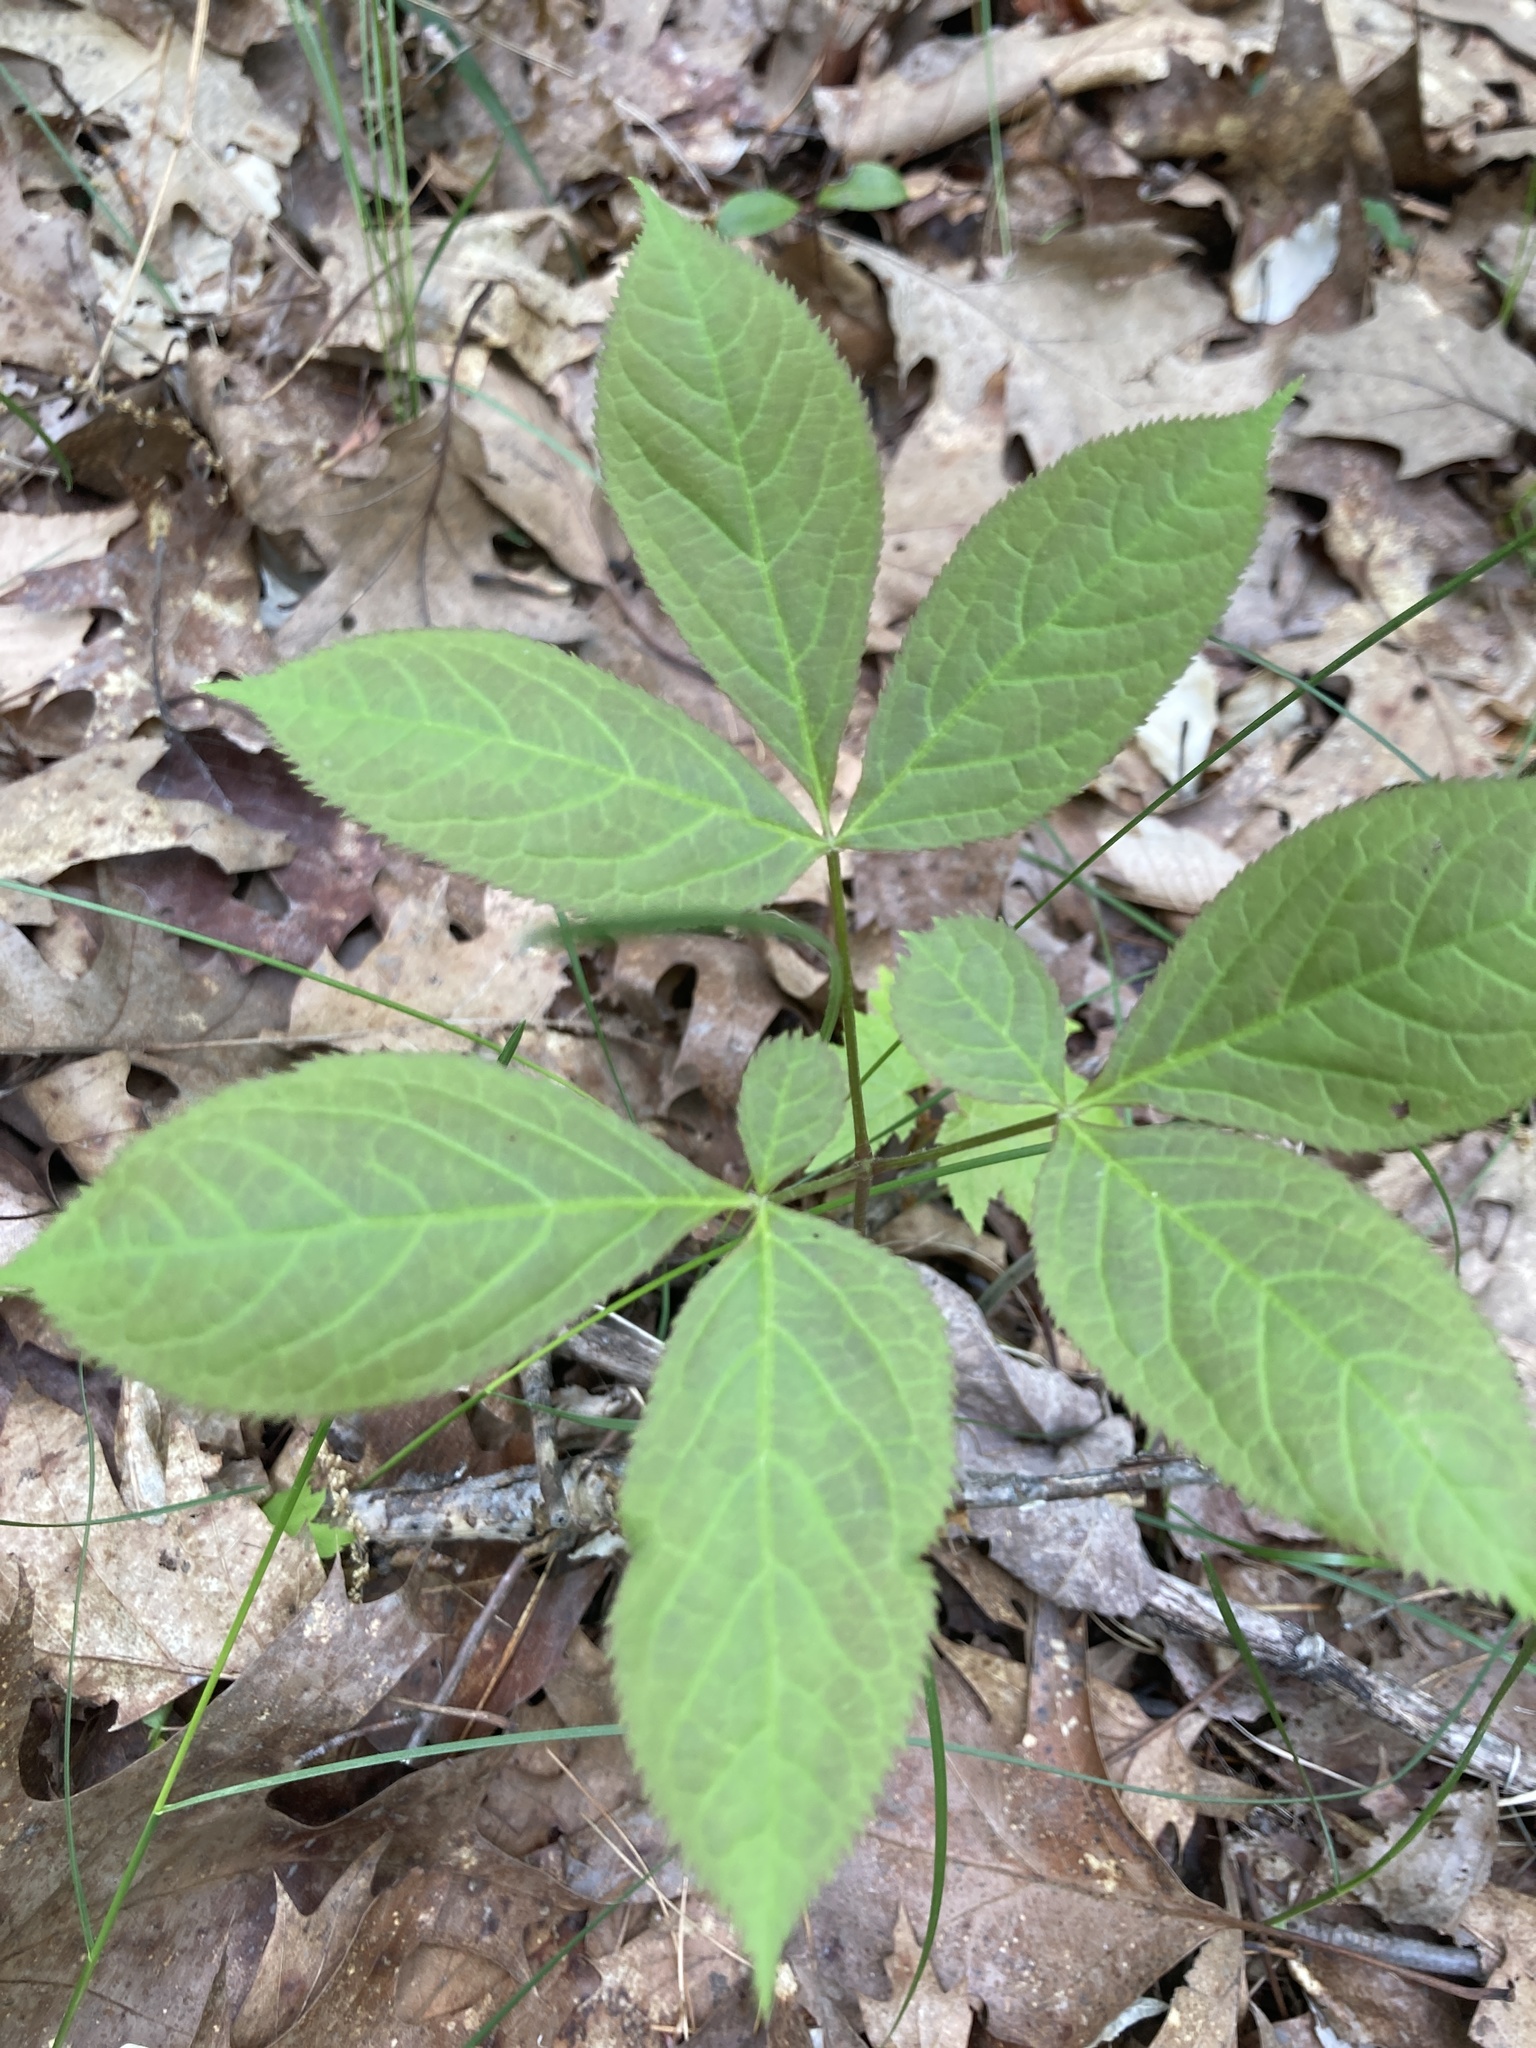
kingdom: Plantae
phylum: Tracheophyta
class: Magnoliopsida
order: Apiales
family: Araliaceae
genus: Aralia
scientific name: Aralia nudicaulis
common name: Wild sarsaparilla
